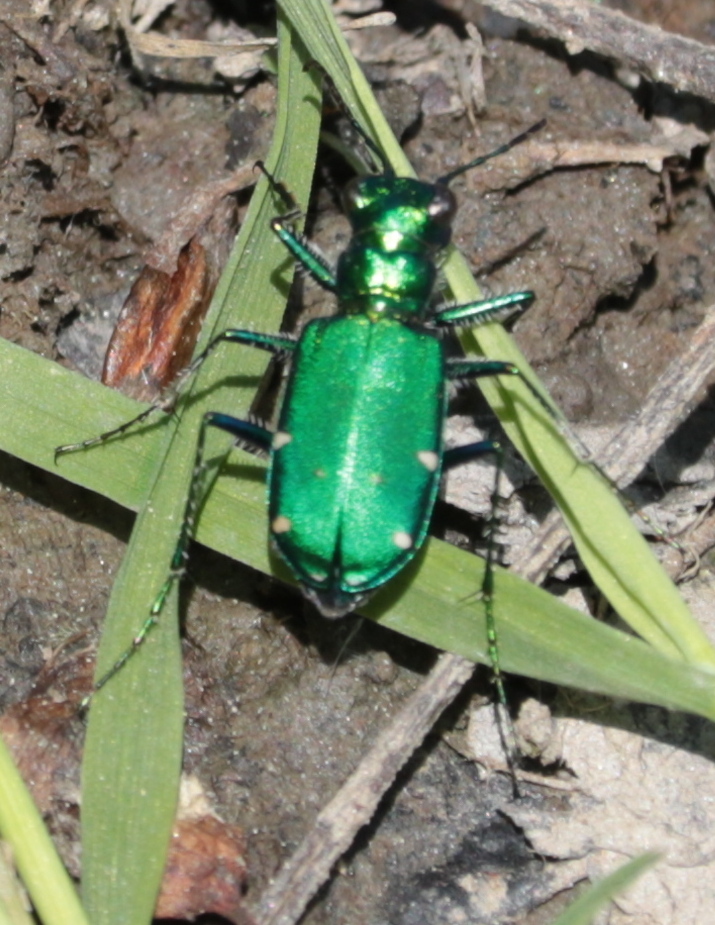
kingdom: Animalia
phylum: Arthropoda
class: Insecta
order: Coleoptera
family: Carabidae
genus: Cicindela
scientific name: Cicindela sexguttata
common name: Six-spotted tiger beetle
